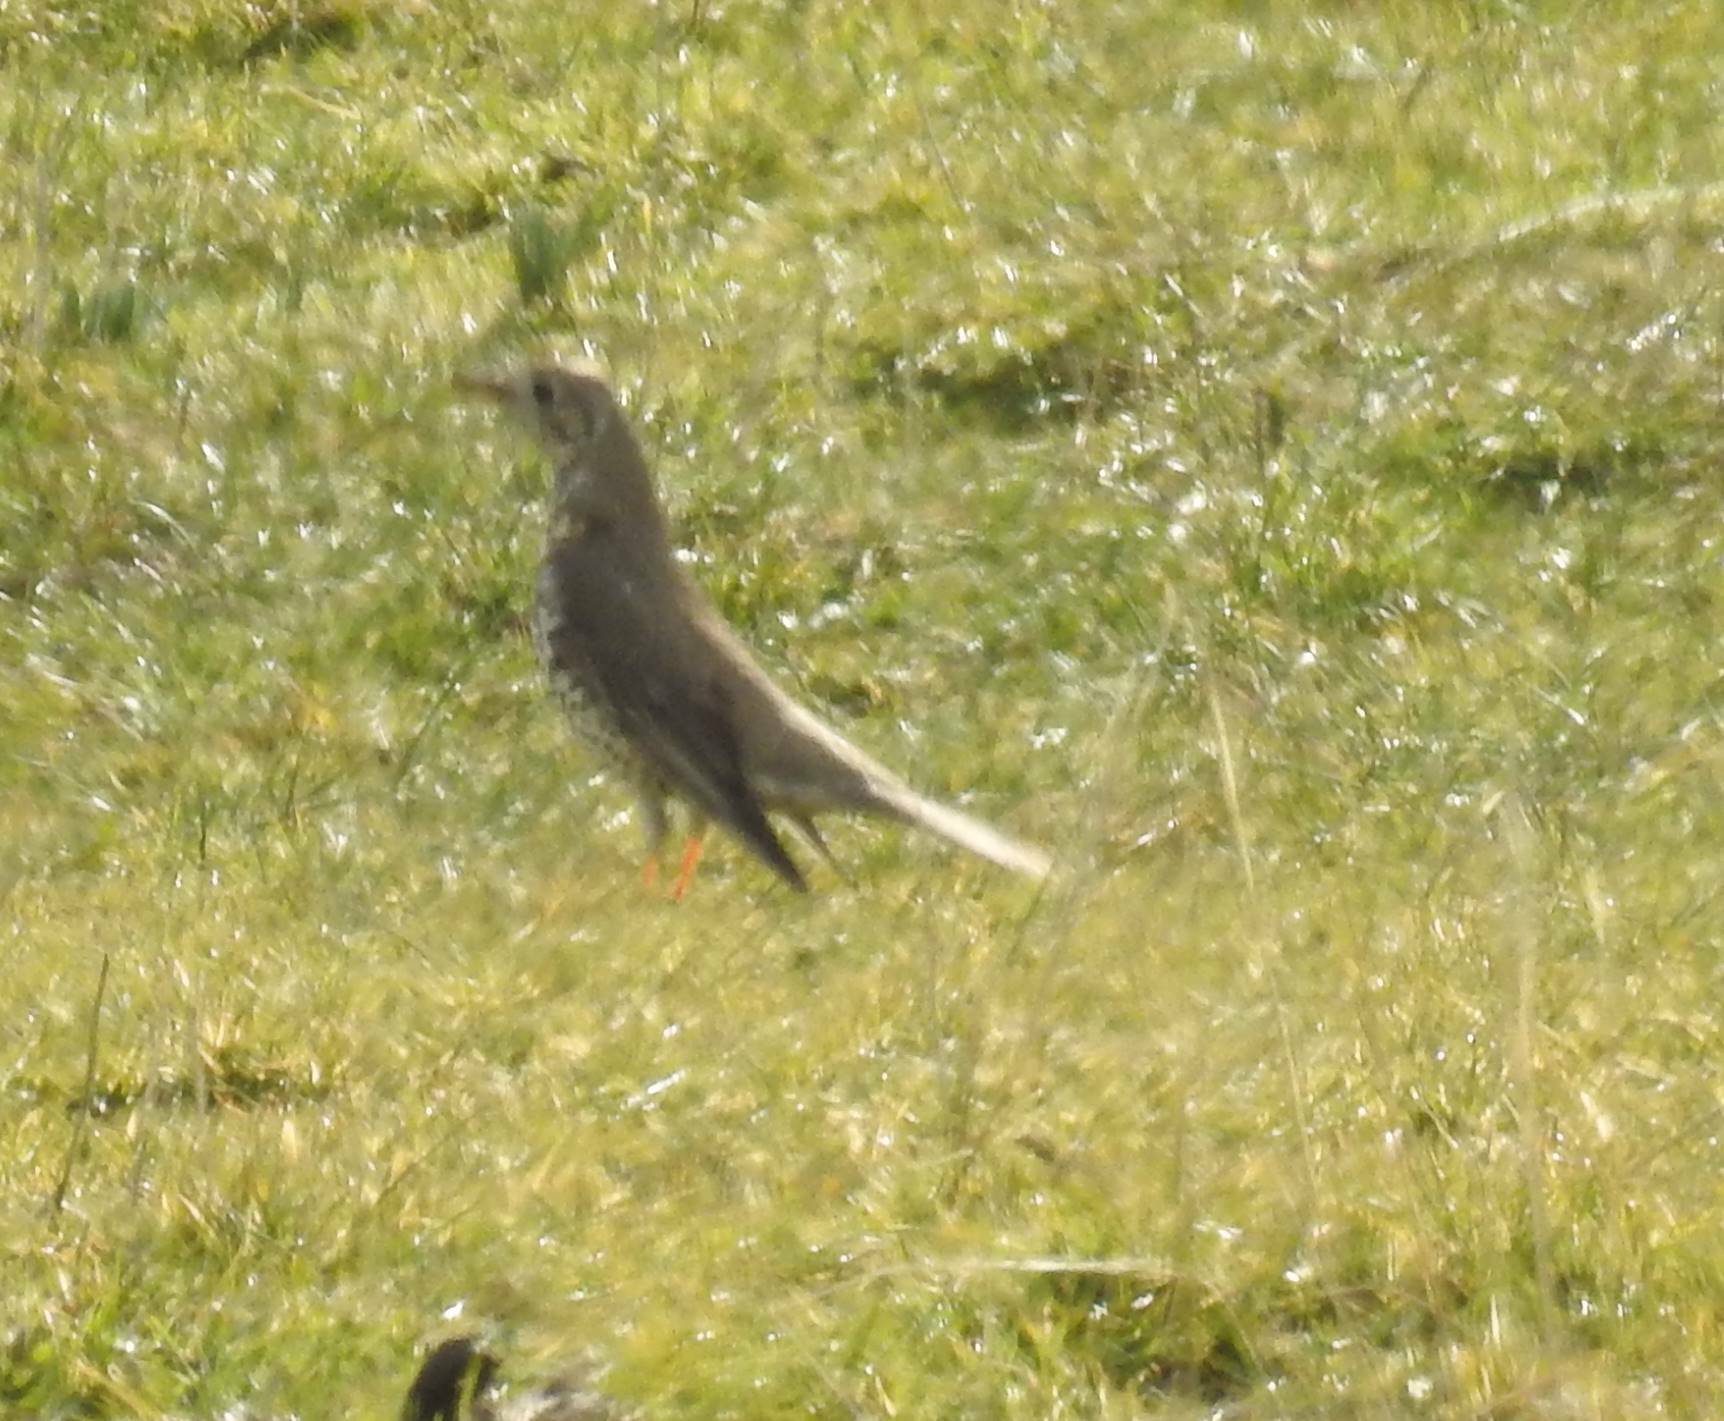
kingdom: Animalia
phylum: Chordata
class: Aves
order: Passeriformes
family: Turdidae
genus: Turdus
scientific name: Turdus viscivorus
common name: Mistle thrush
